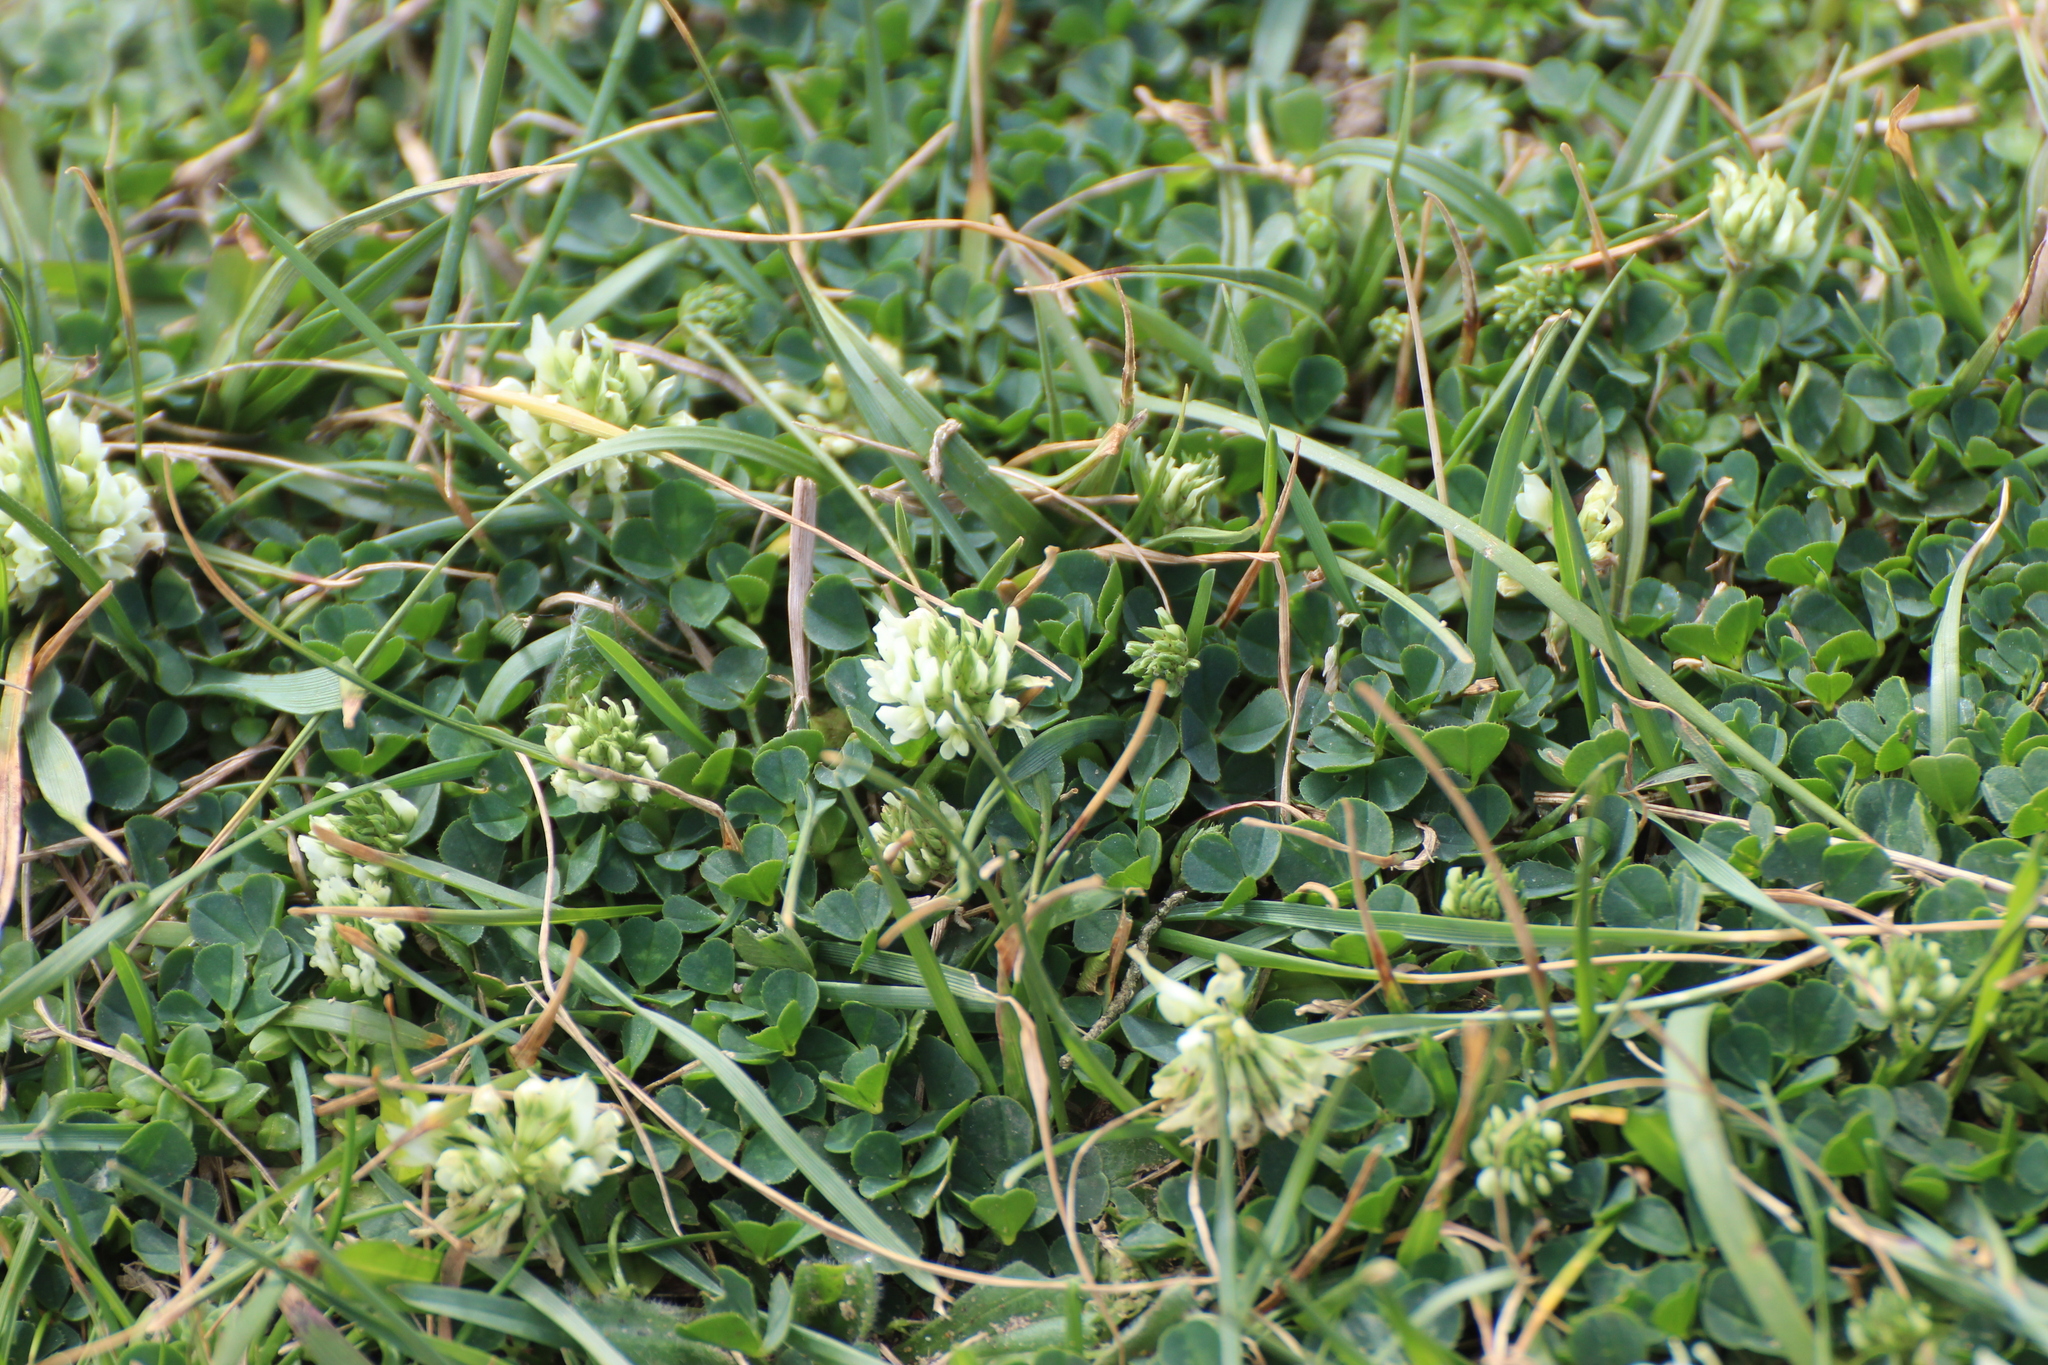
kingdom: Plantae
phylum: Tracheophyta
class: Magnoliopsida
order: Fabales
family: Fabaceae
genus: Trifolium
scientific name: Trifolium repens
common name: White clover
